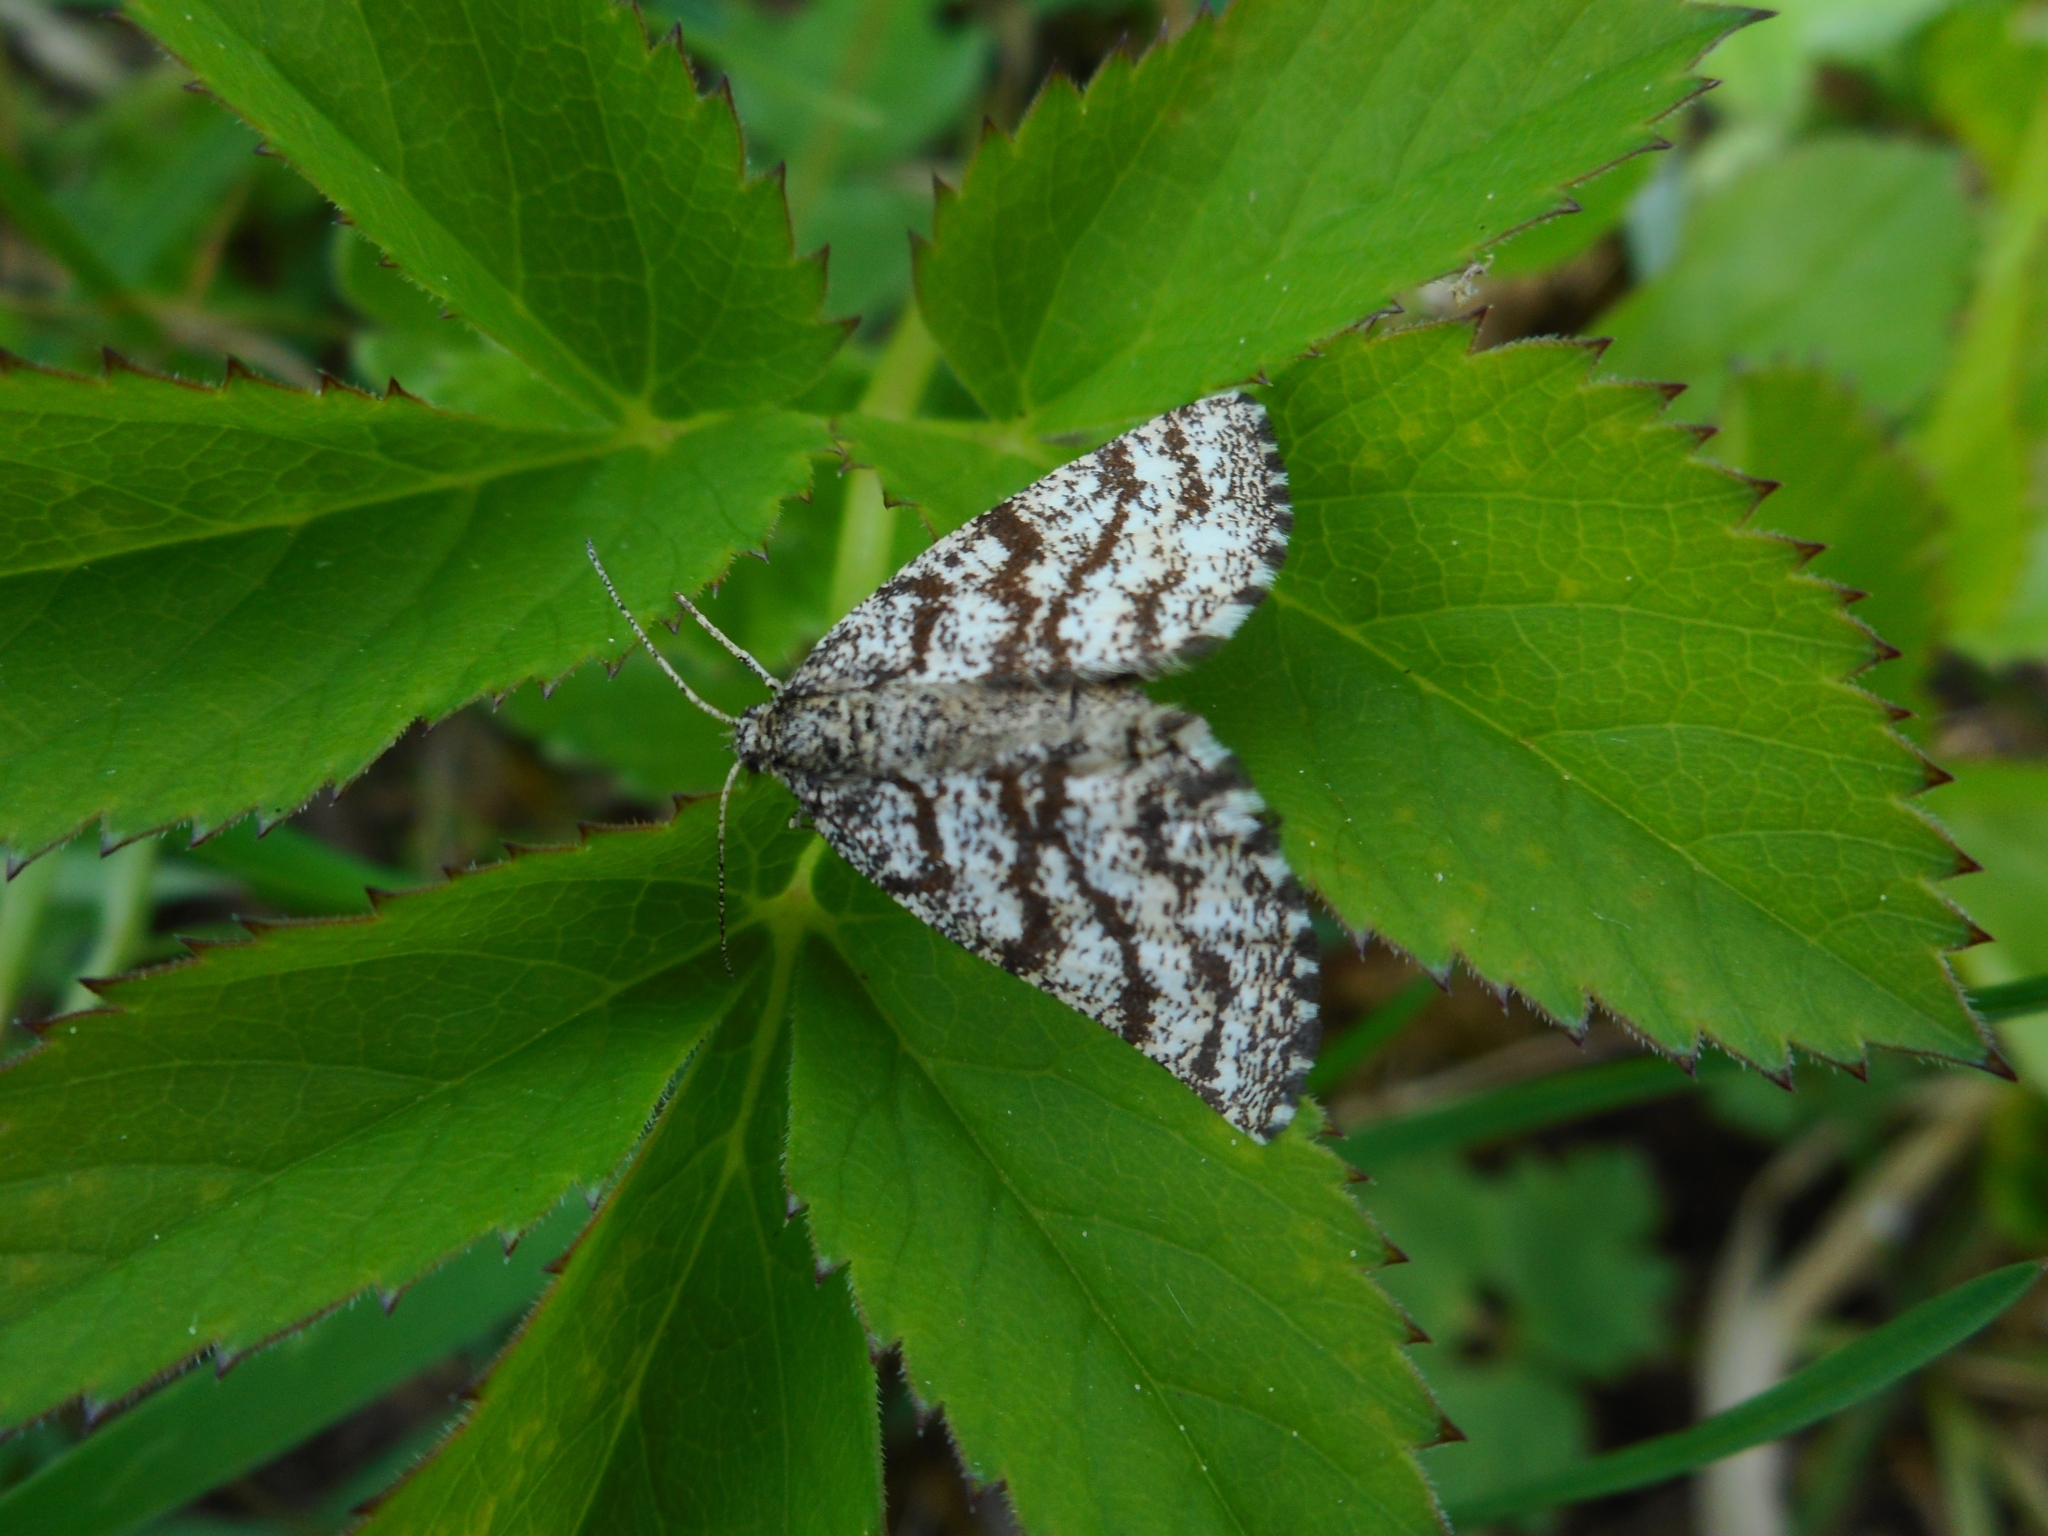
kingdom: Animalia
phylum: Arthropoda
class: Insecta
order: Lepidoptera
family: Geometridae
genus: Ematurga
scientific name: Ematurga atomaria
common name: Common heath
